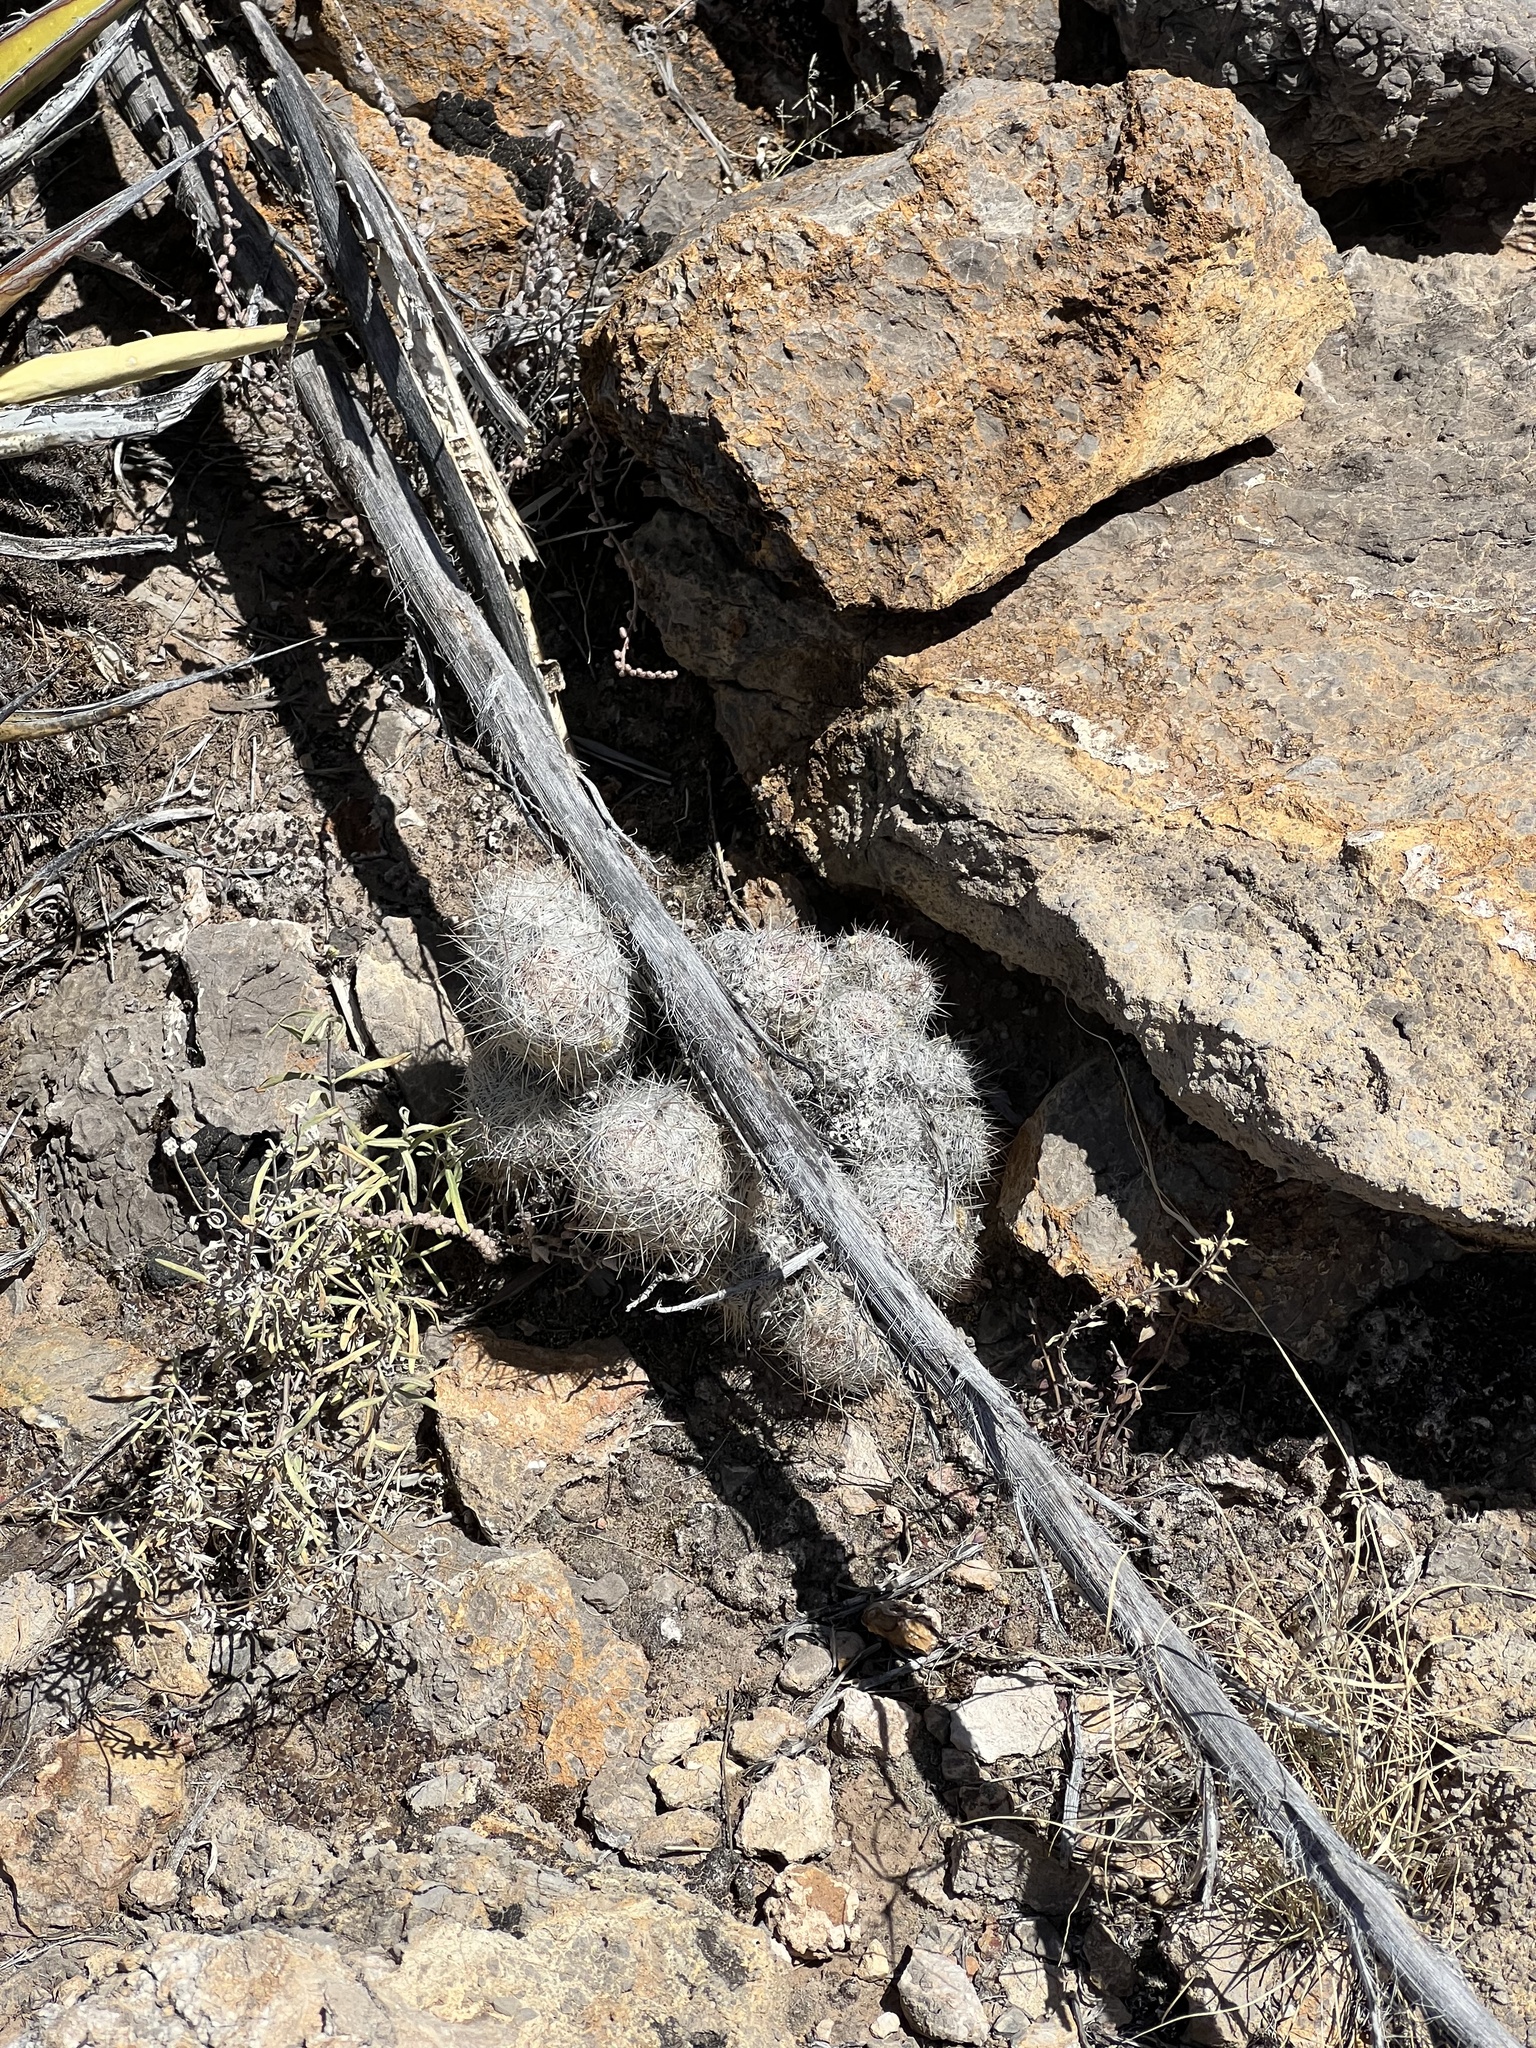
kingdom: Plantae
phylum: Tracheophyta
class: Magnoliopsida
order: Caryophyllales
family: Cactaceae
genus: Pelecyphora
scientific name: Pelecyphora tuberculosa
